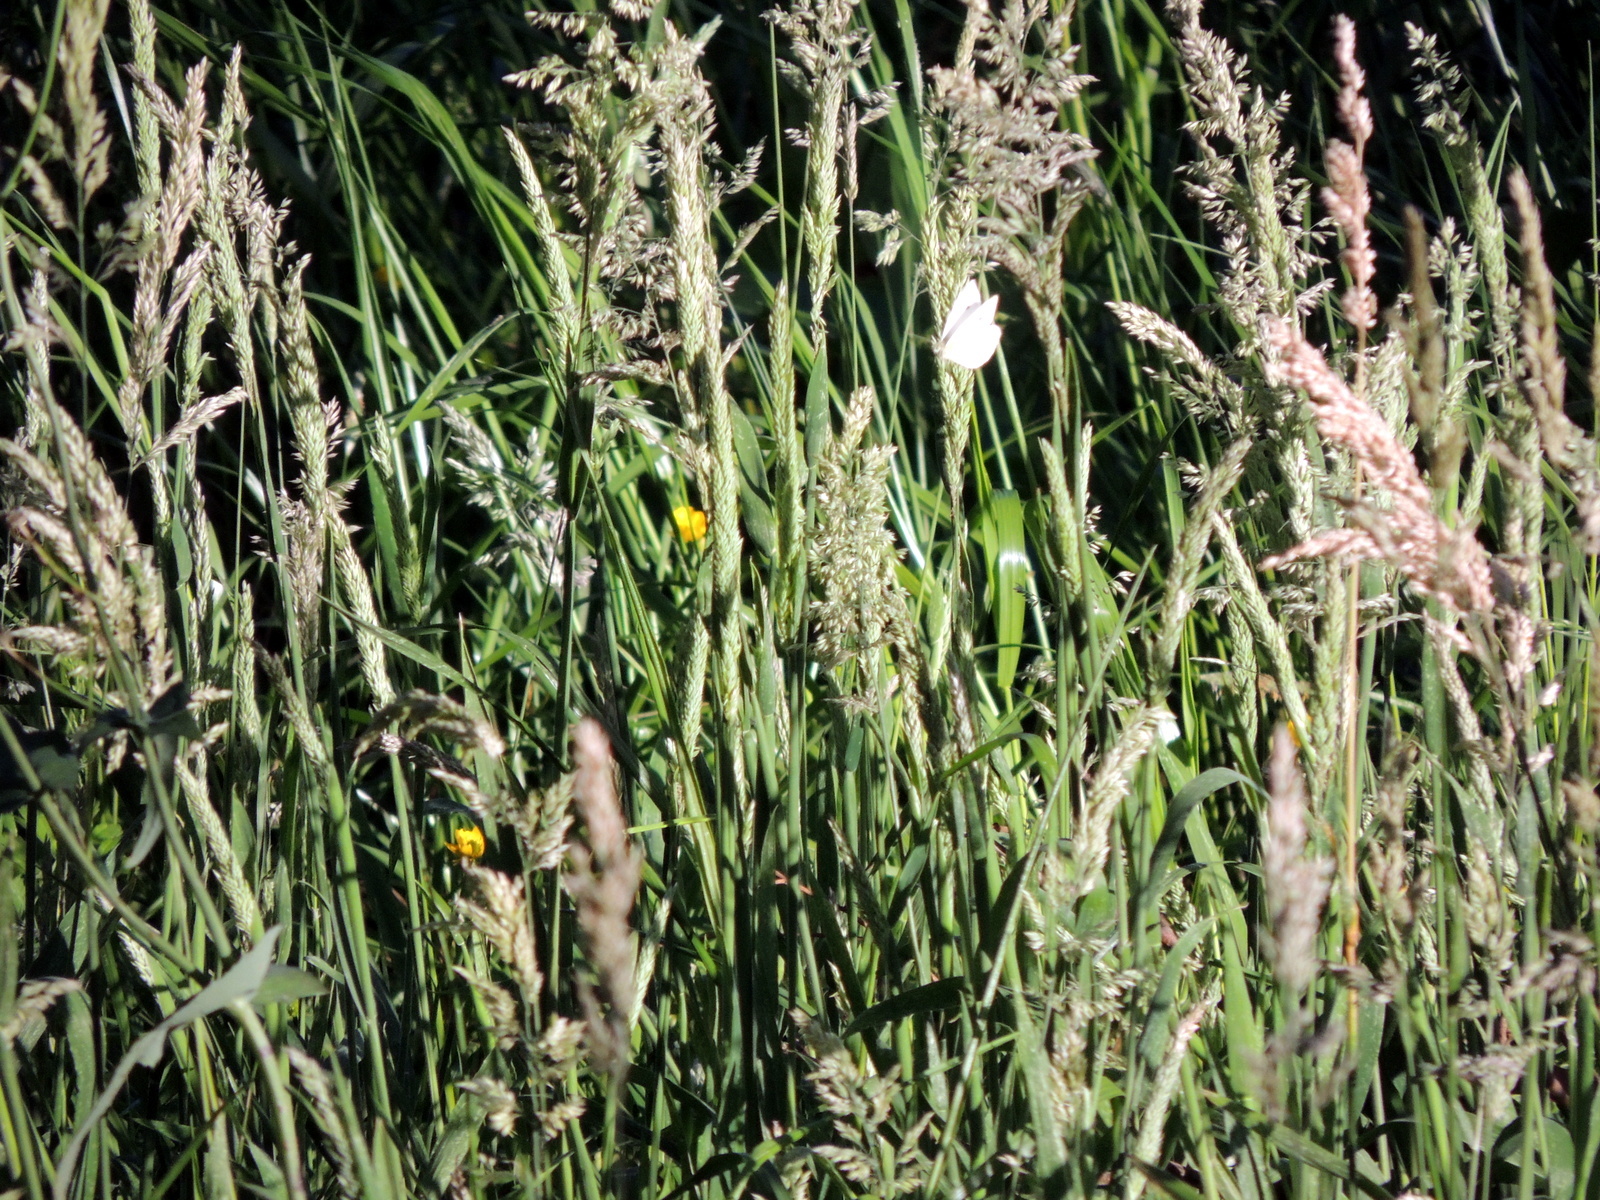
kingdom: Plantae
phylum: Tracheophyta
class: Liliopsida
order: Poales
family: Poaceae
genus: Holcus
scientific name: Holcus lanatus
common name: Yorkshire-fog
